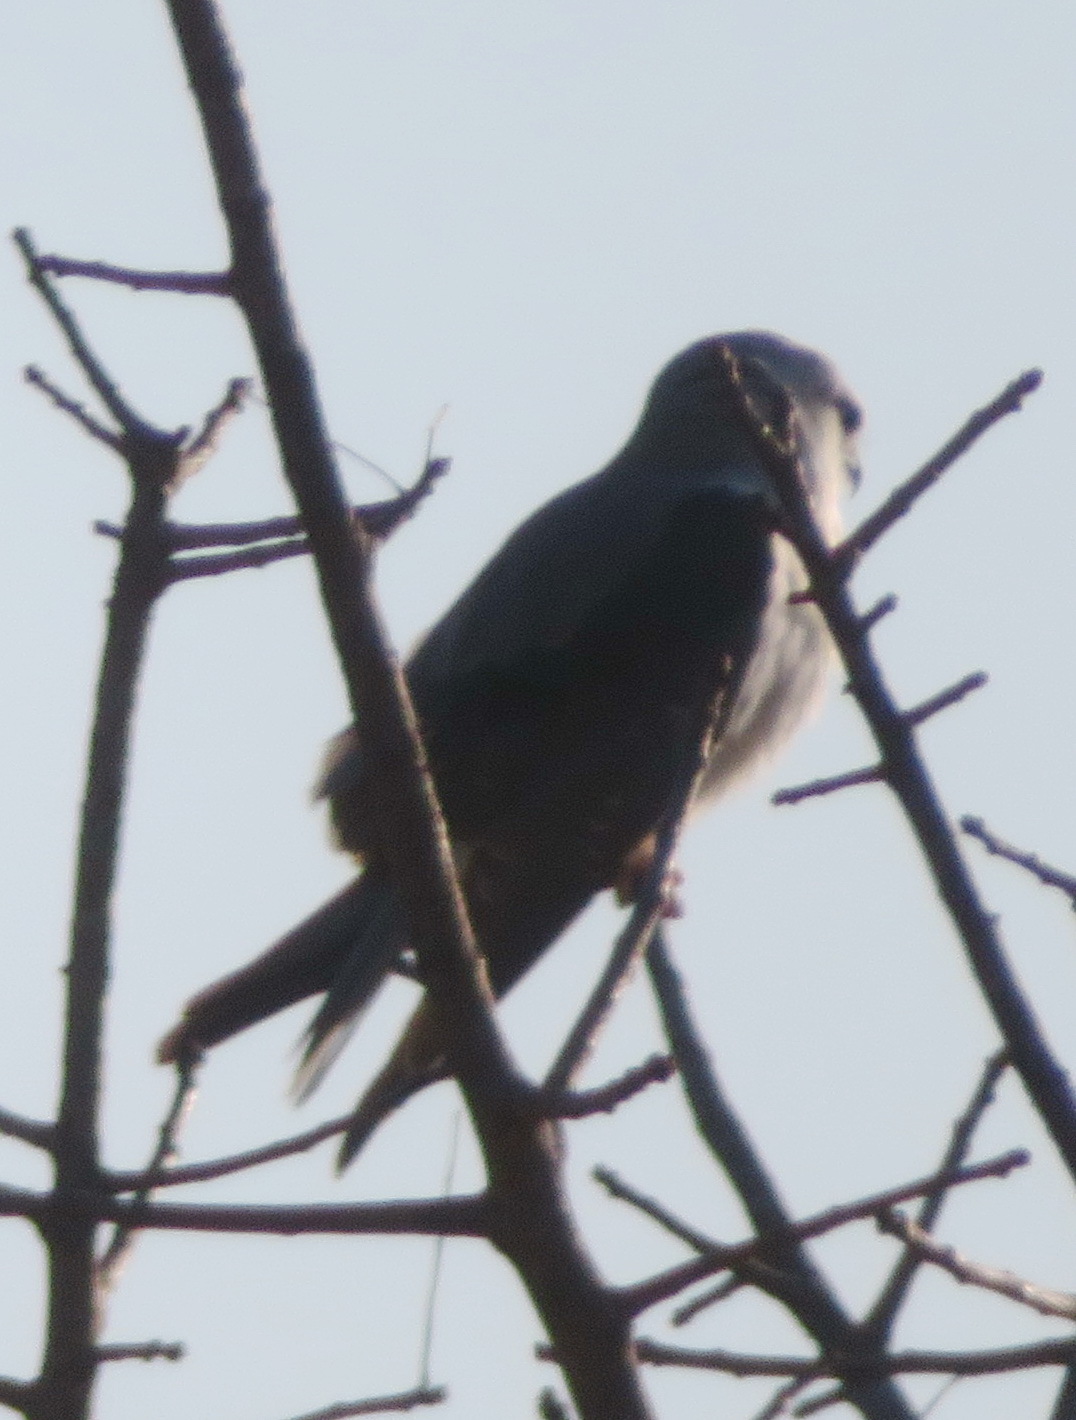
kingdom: Animalia
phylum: Chordata
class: Aves
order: Accipitriformes
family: Accipitridae
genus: Elanus
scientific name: Elanus caeruleus
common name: Black-winged kite
